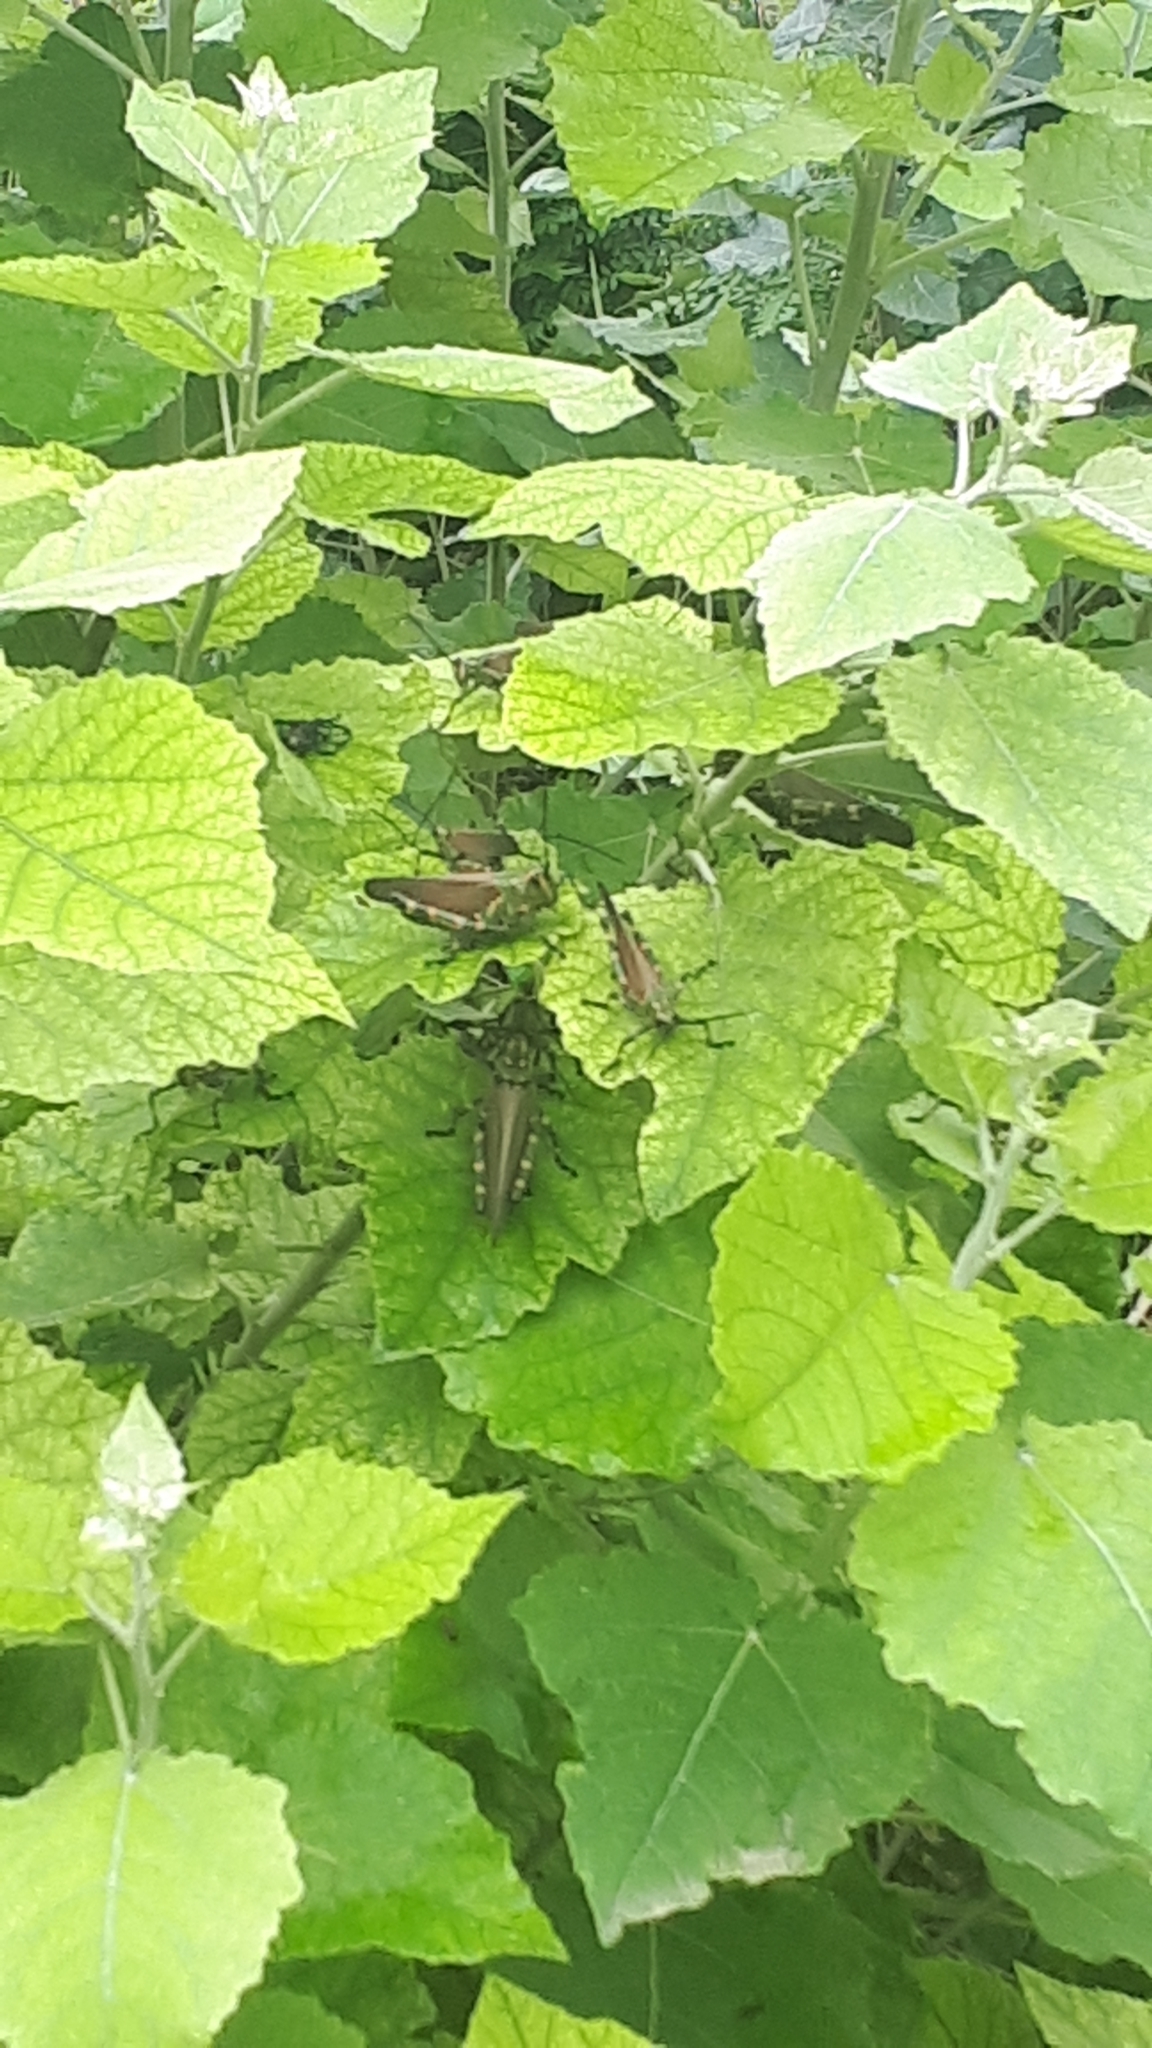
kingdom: Animalia
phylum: Arthropoda
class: Insecta
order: Orthoptera
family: Romaleidae
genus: Chromacris
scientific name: Chromacris speciosa
